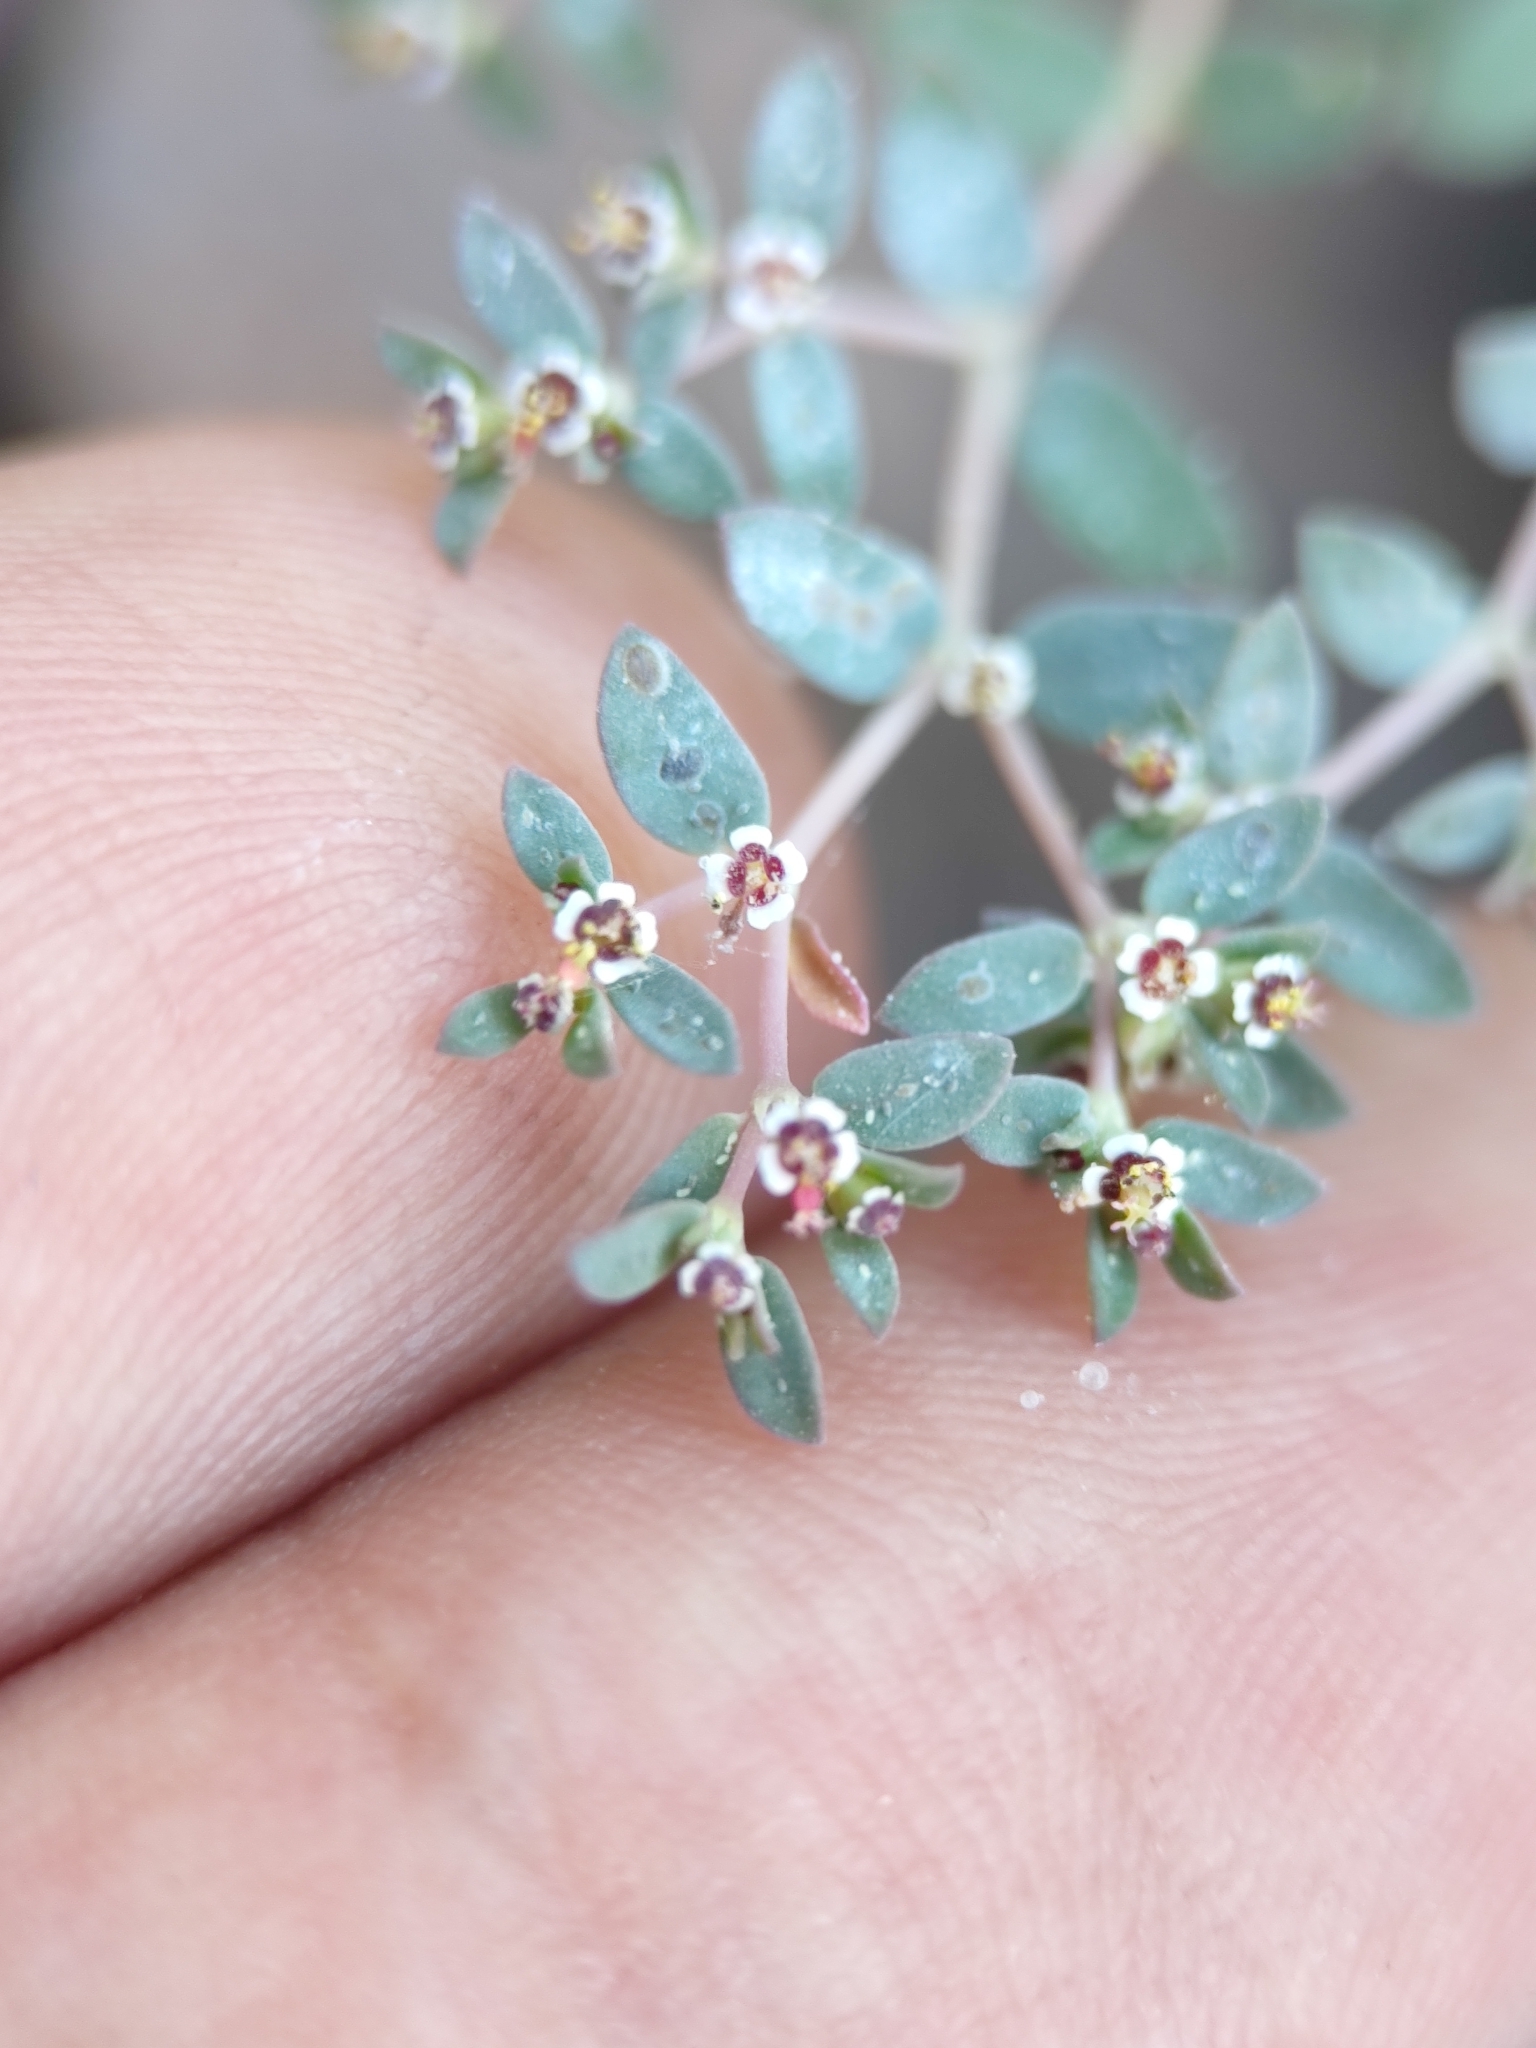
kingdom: Plantae
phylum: Tracheophyta
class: Magnoliopsida
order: Malpighiales
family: Euphorbiaceae
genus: Euphorbia
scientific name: Euphorbia polycarpa
